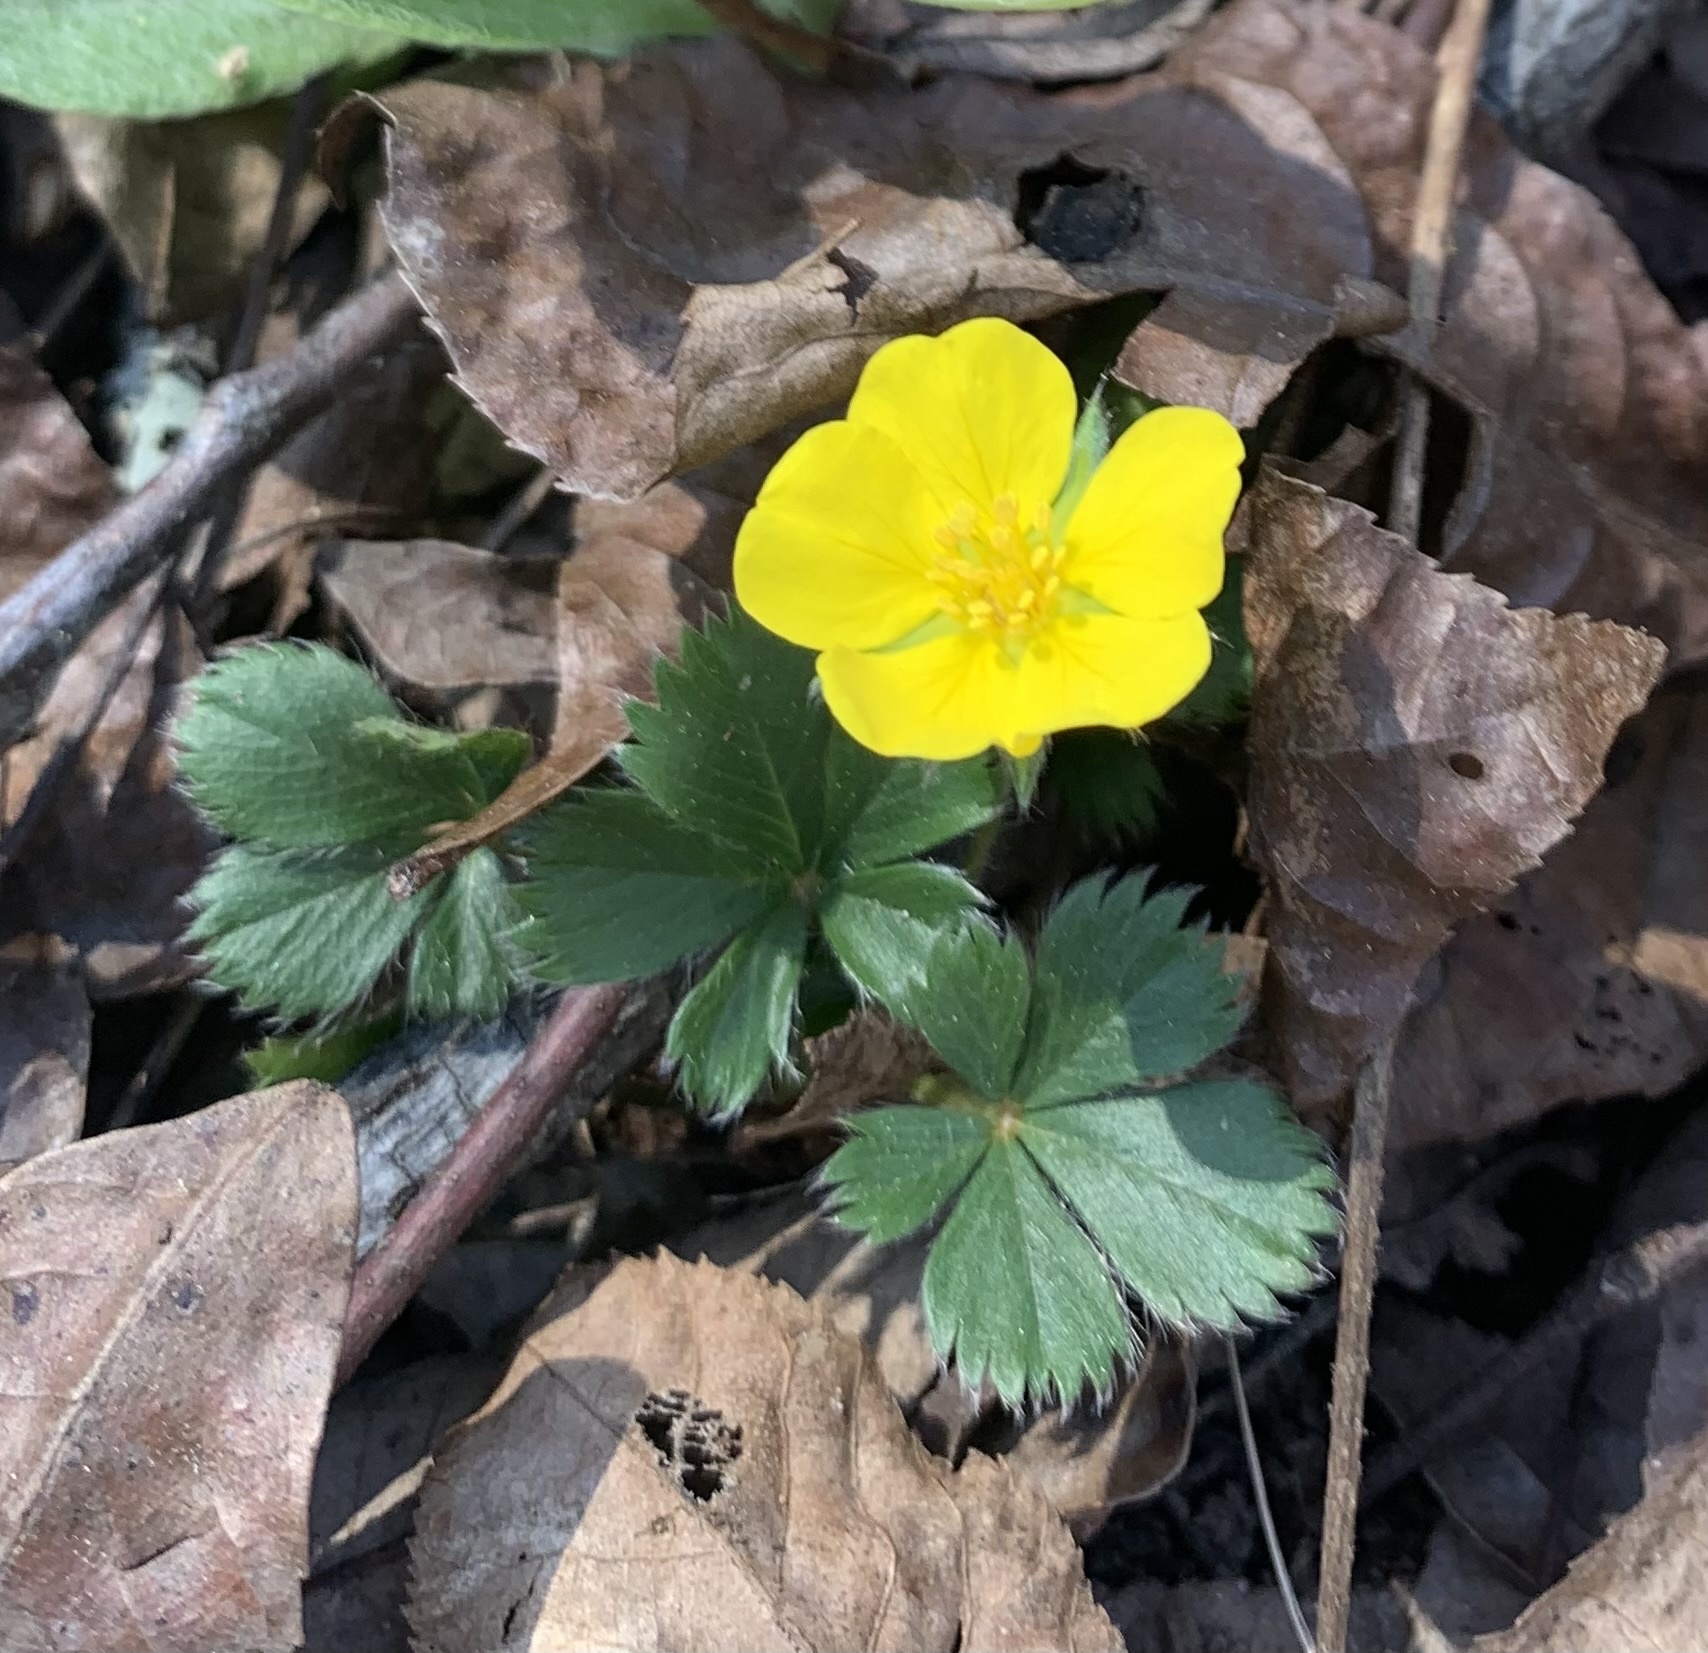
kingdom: Plantae
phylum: Tracheophyta
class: Magnoliopsida
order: Rosales
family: Rosaceae
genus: Potentilla
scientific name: Potentilla canadensis
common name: Canada cinquefoil
